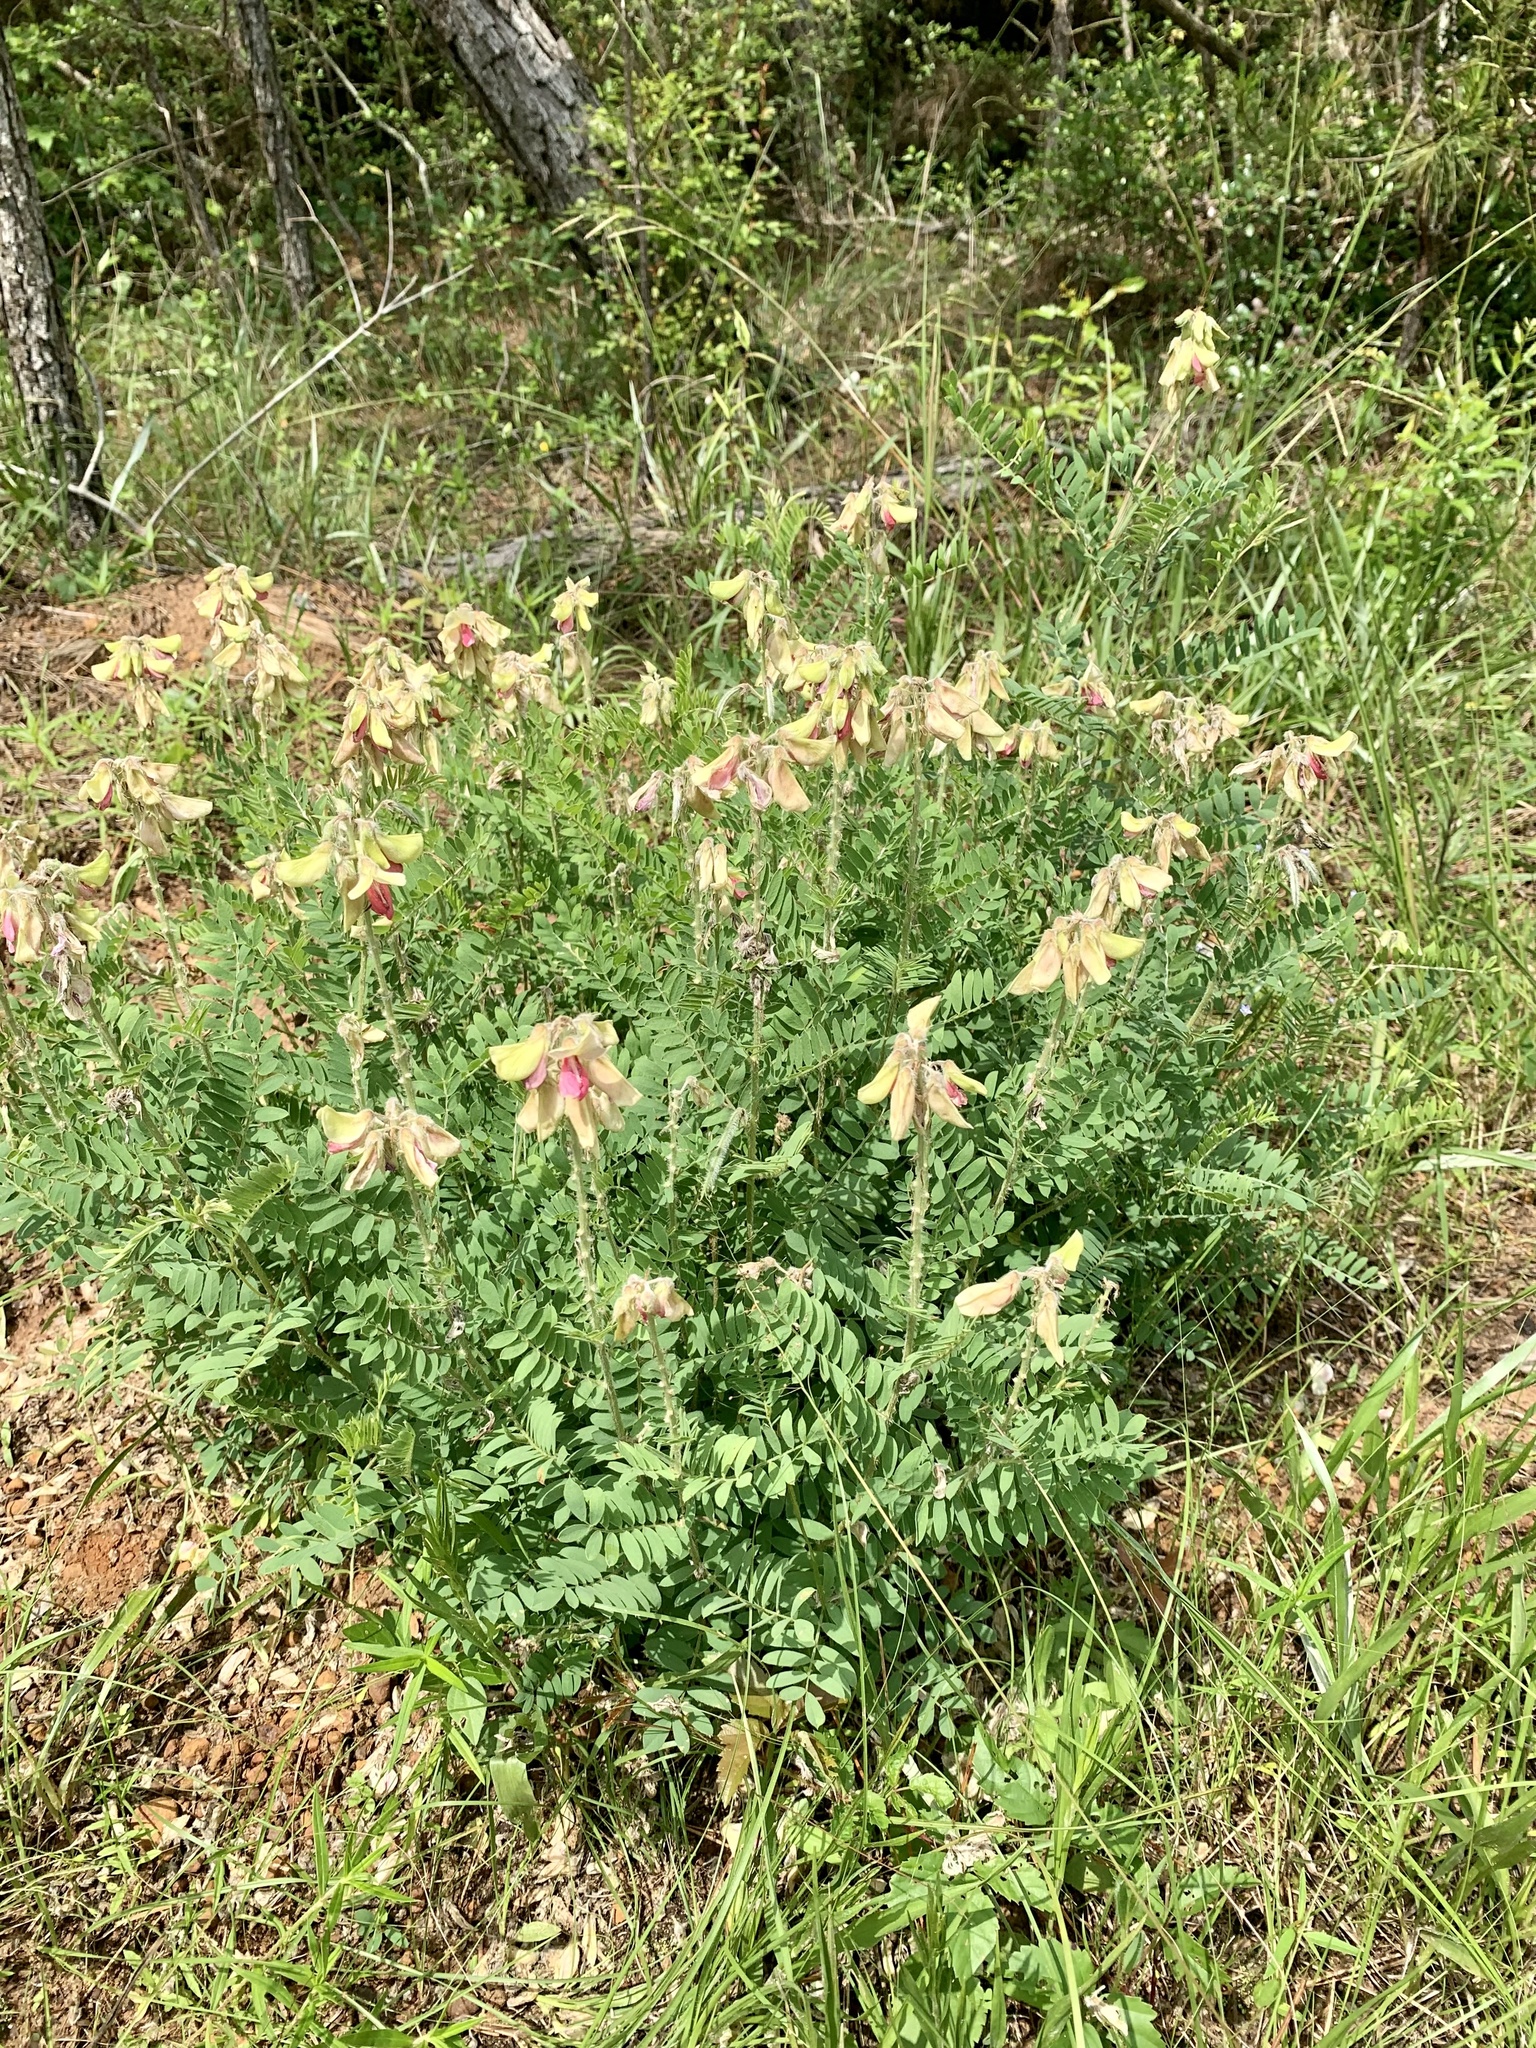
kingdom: Plantae
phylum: Tracheophyta
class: Magnoliopsida
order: Fabales
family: Fabaceae
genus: Tephrosia
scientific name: Tephrosia virginiana
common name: Rabbit-pea
